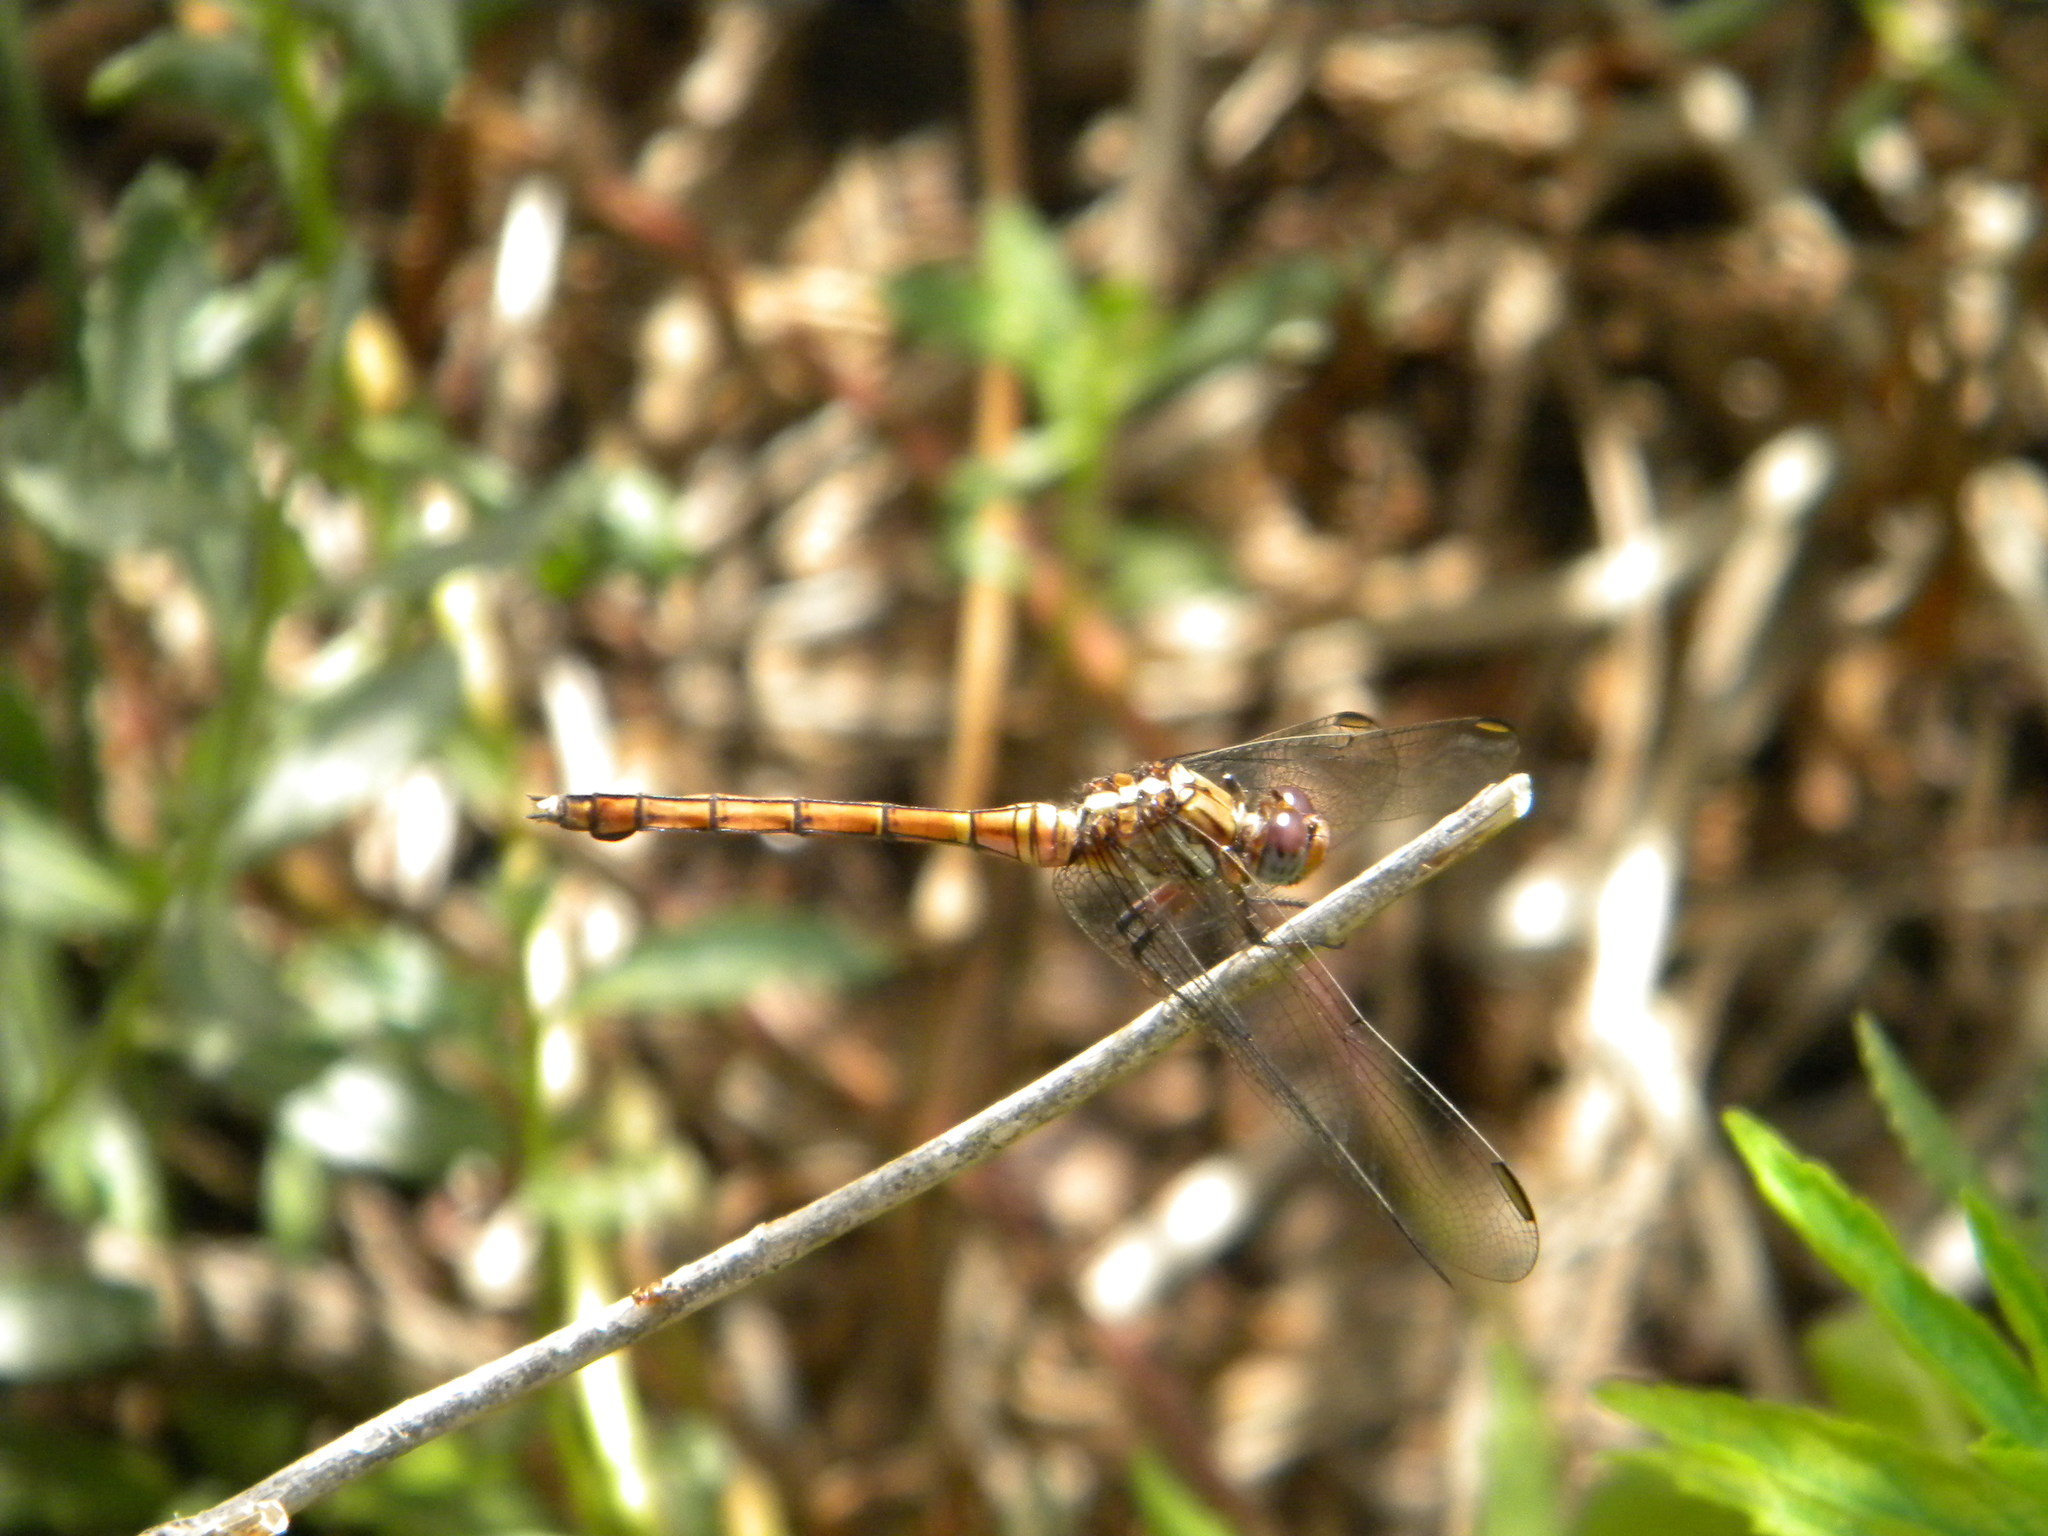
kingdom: Animalia
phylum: Arthropoda
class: Insecta
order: Odonata
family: Libellulidae
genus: Orthetrum
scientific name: Orthetrum julia
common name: Julia skimmer
